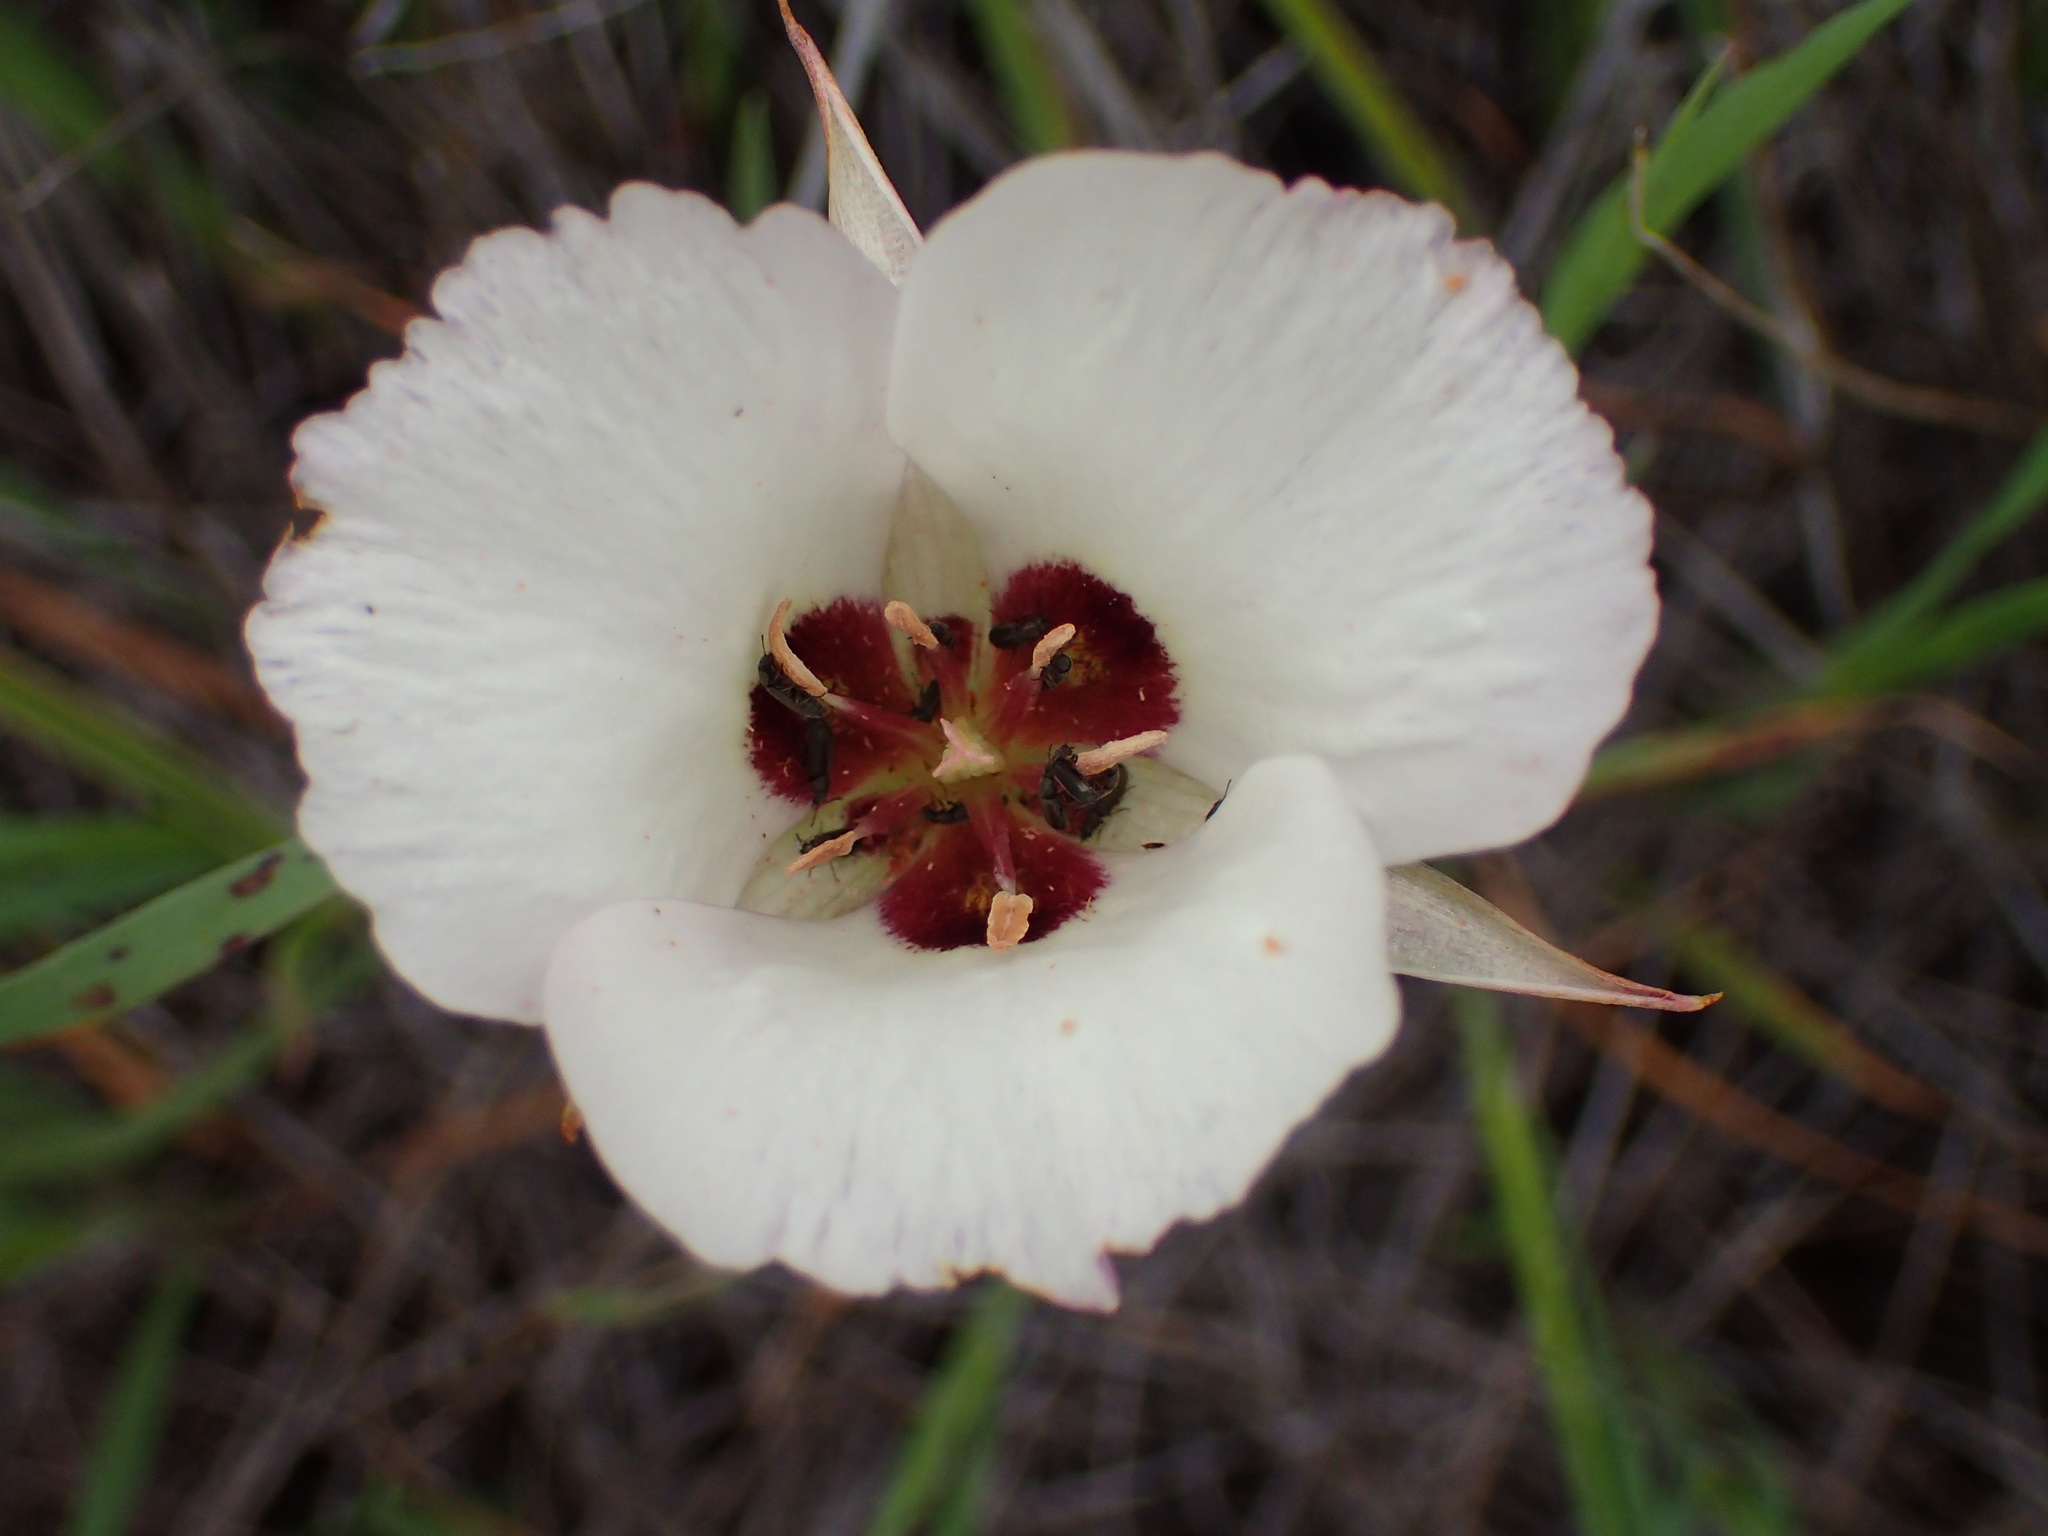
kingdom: Plantae
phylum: Tracheophyta
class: Liliopsida
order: Liliales
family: Liliaceae
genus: Calochortus
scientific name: Calochortus catalinae
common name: Catalina mariposa-lily
